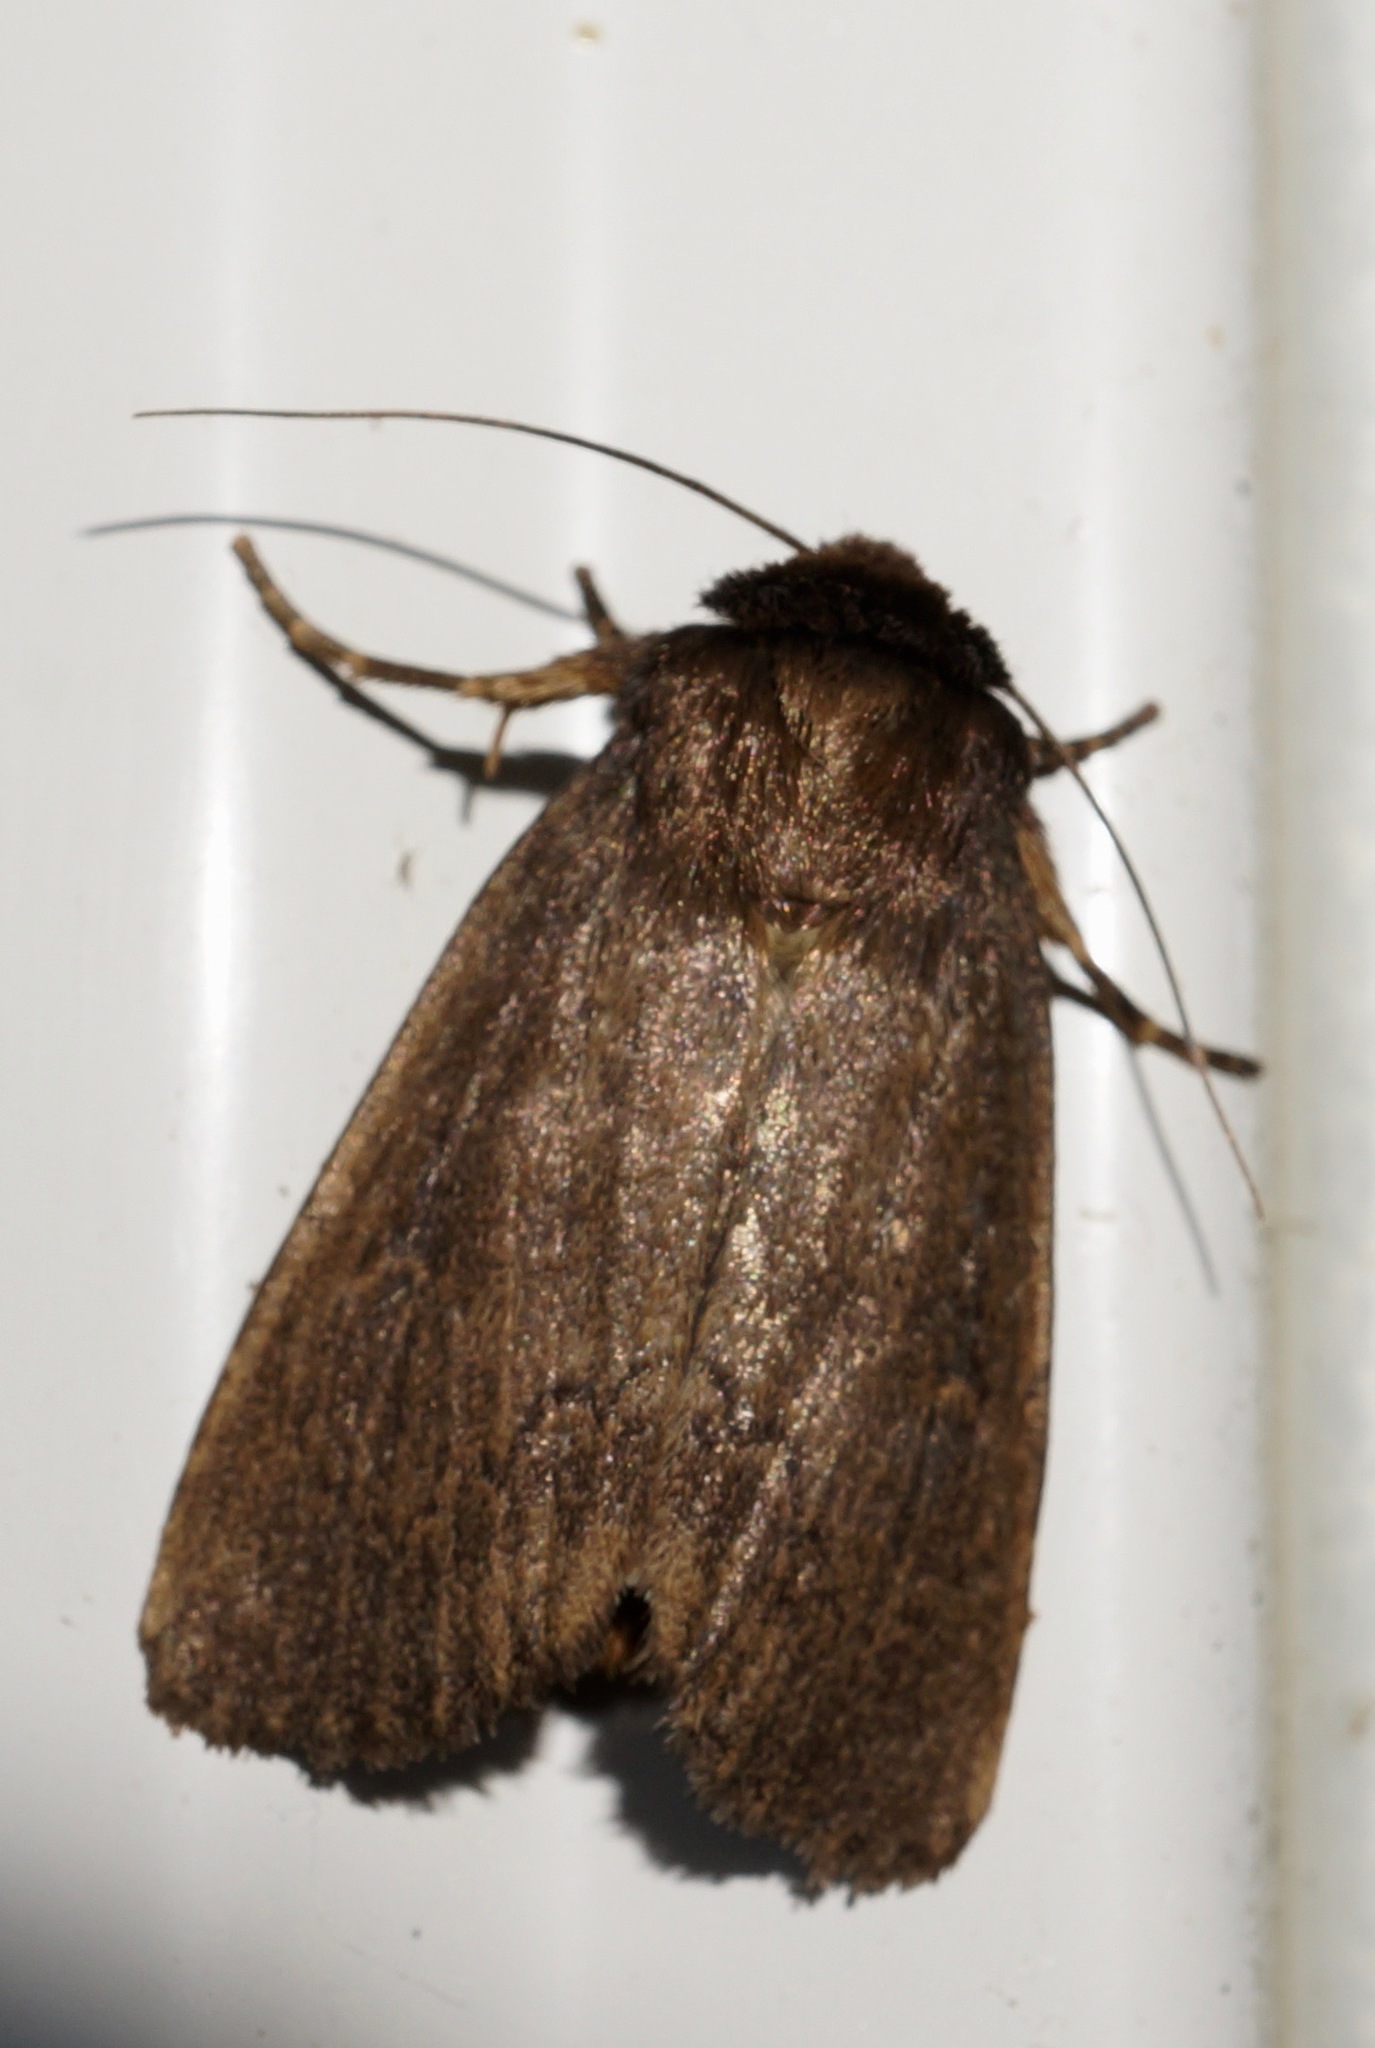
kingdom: Animalia
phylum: Arthropoda
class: Insecta
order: Lepidoptera
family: Noctuidae
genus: Bityla
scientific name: Bityla defigurata
